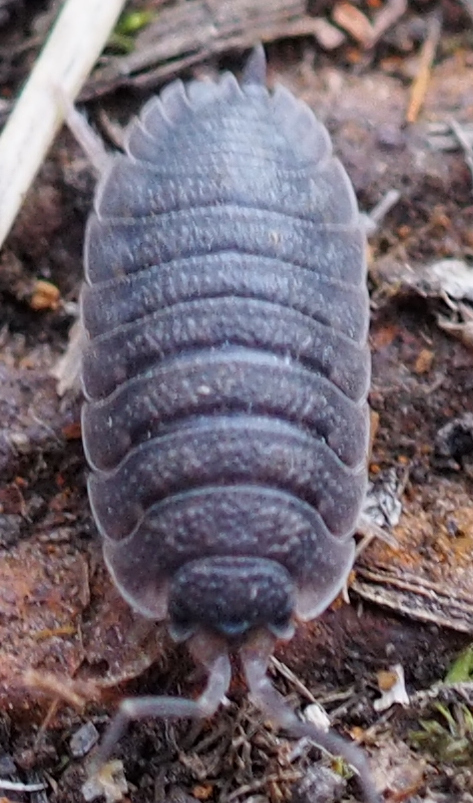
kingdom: Animalia
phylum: Arthropoda
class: Malacostraca
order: Isopoda
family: Porcellionidae
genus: Porcellio
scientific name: Porcellio scaber
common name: Common rough woodlouse
